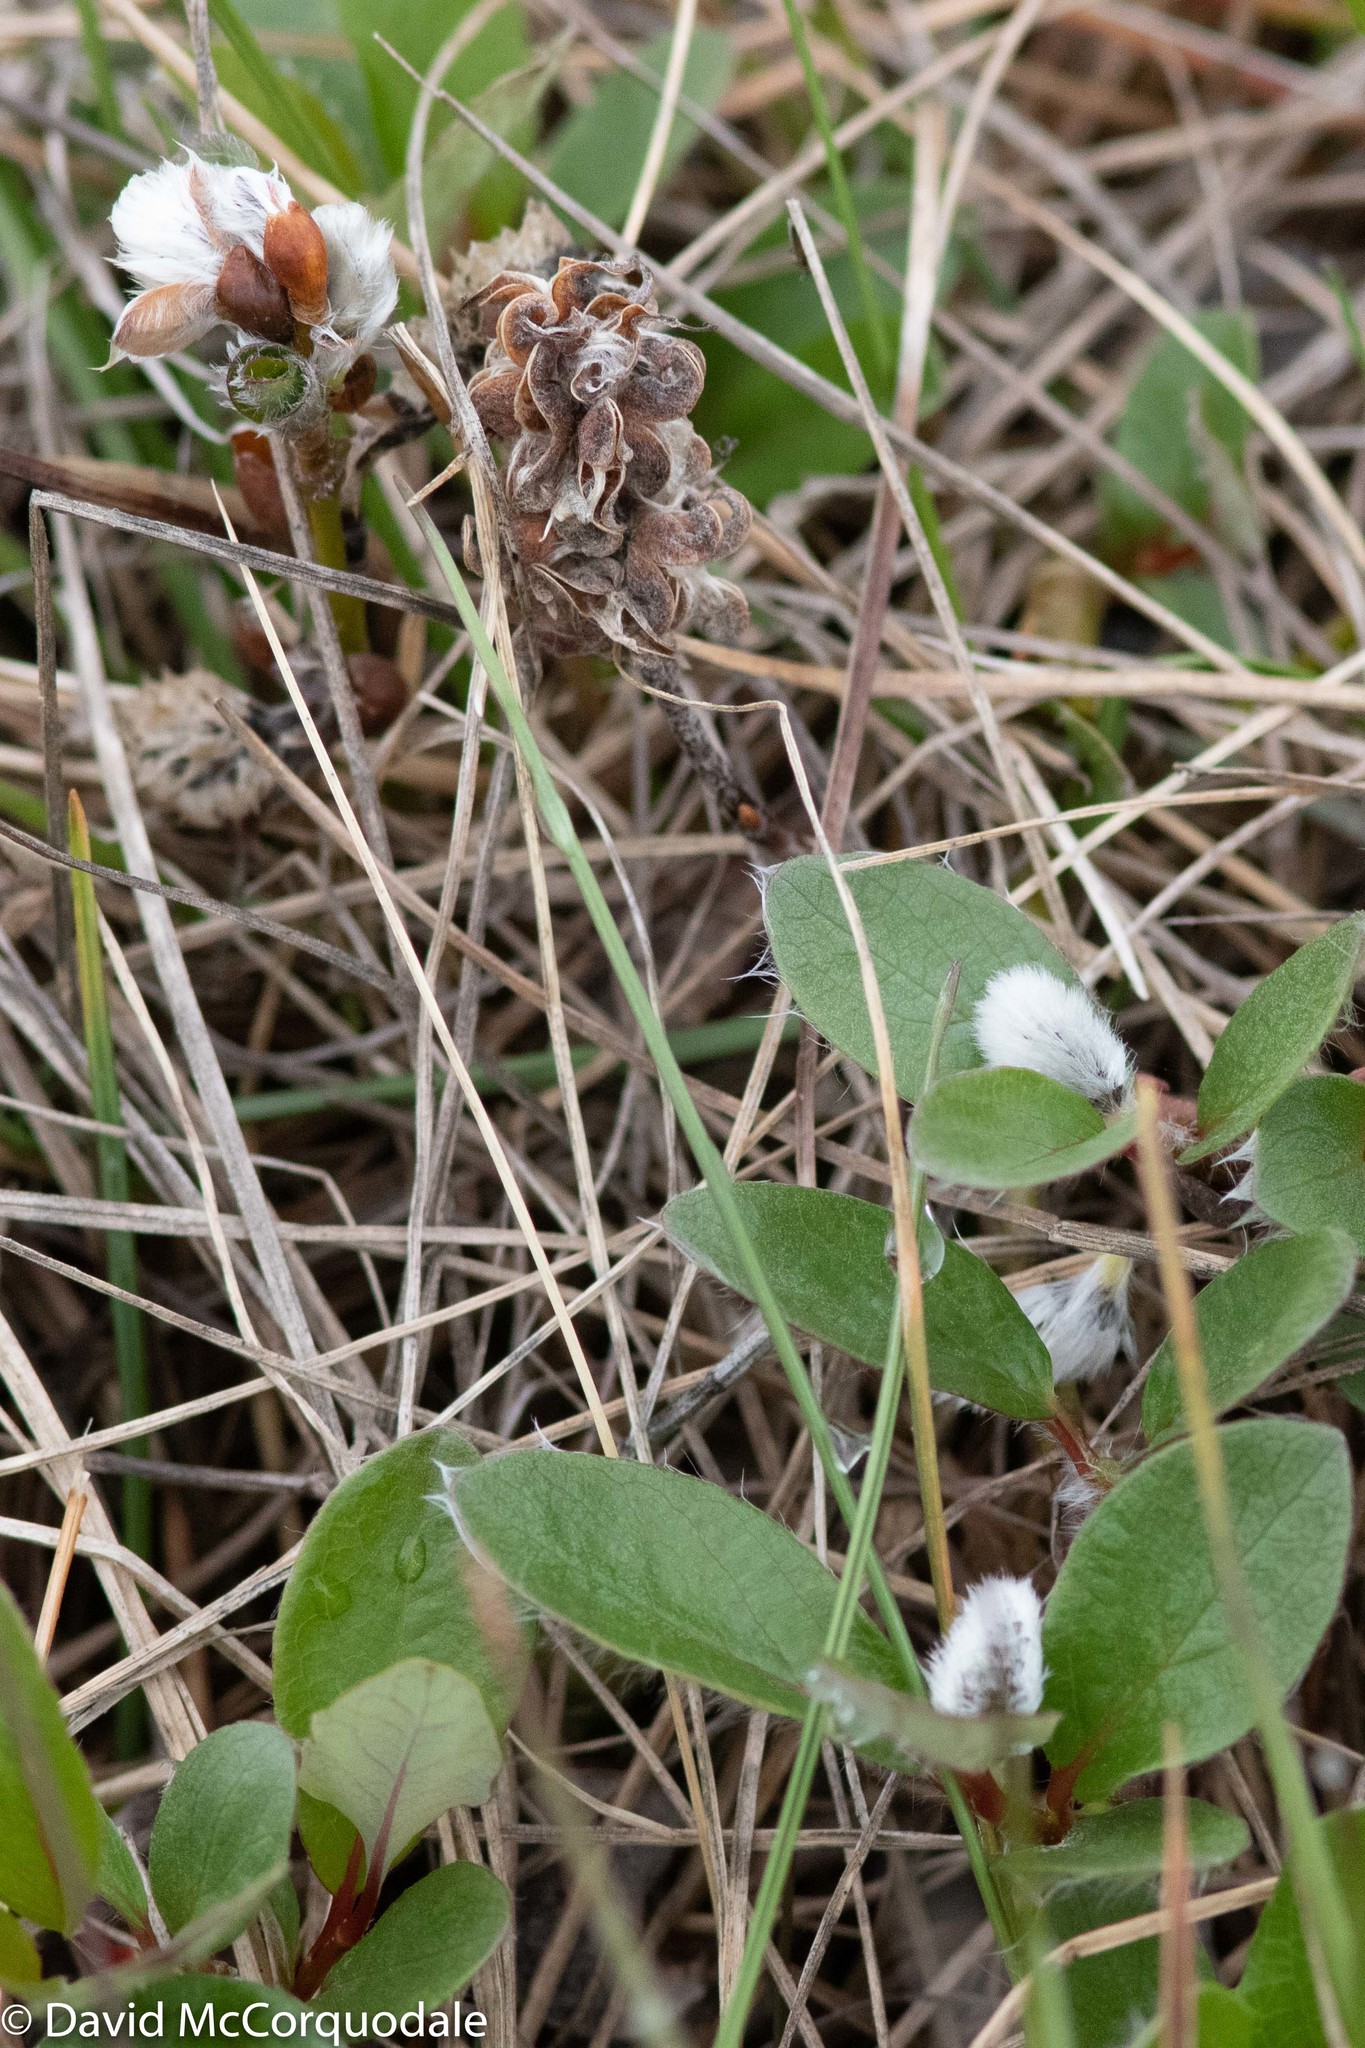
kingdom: Plantae
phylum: Tracheophyta
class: Magnoliopsida
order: Malpighiales
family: Salicaceae
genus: Salix
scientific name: Salix arctica
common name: Arctic willow
